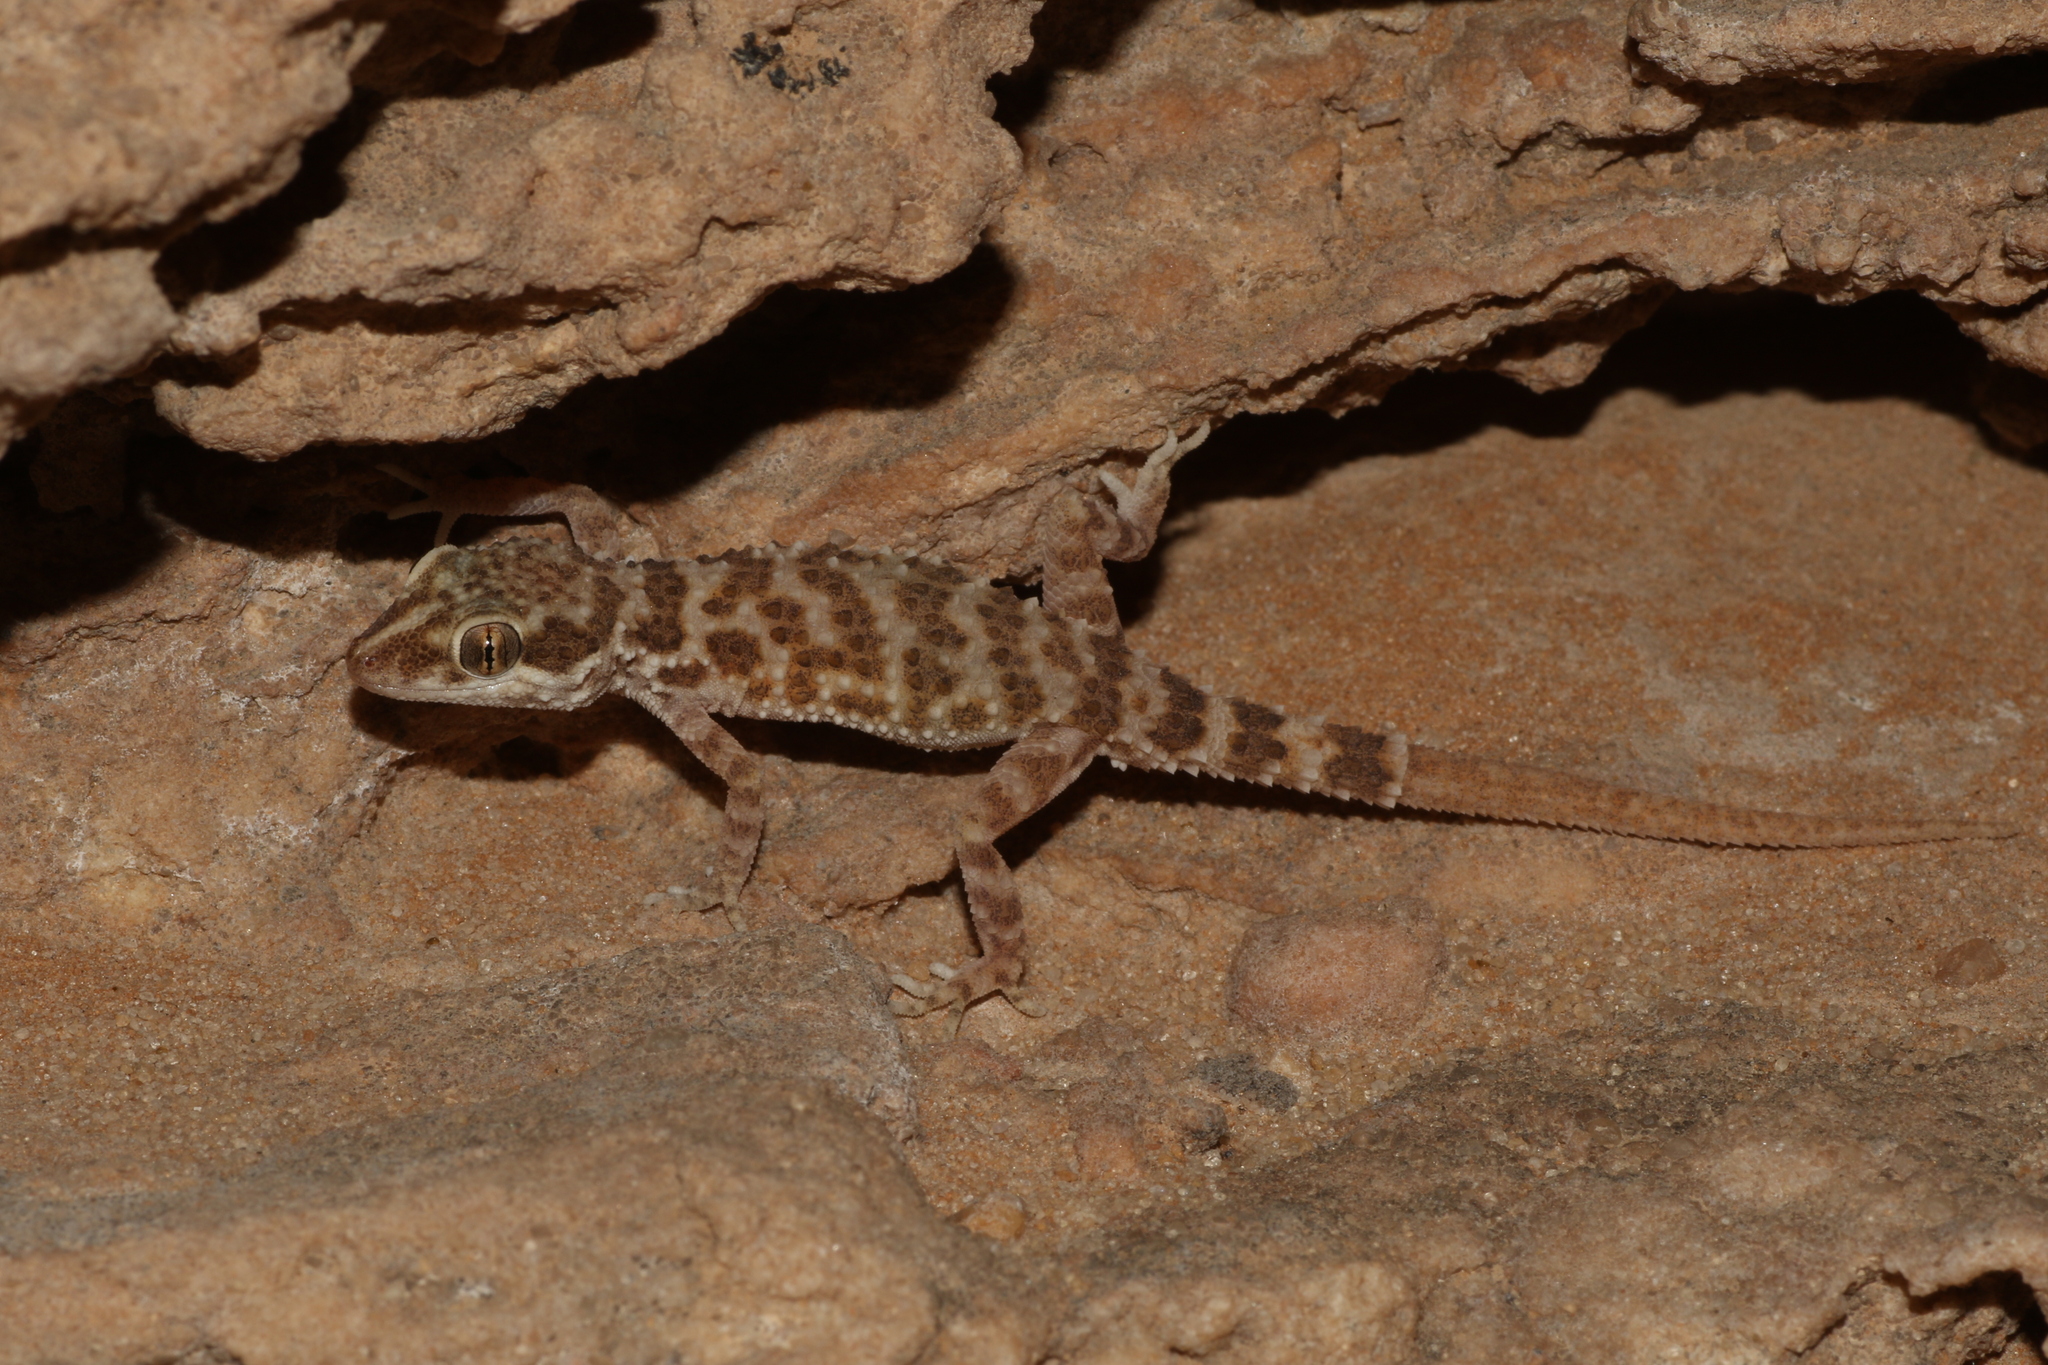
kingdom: Animalia
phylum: Chordata
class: Squamata
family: Gekkonidae
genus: Bunopus
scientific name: Bunopus tuberculatus
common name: Southern tuberculated gecko
